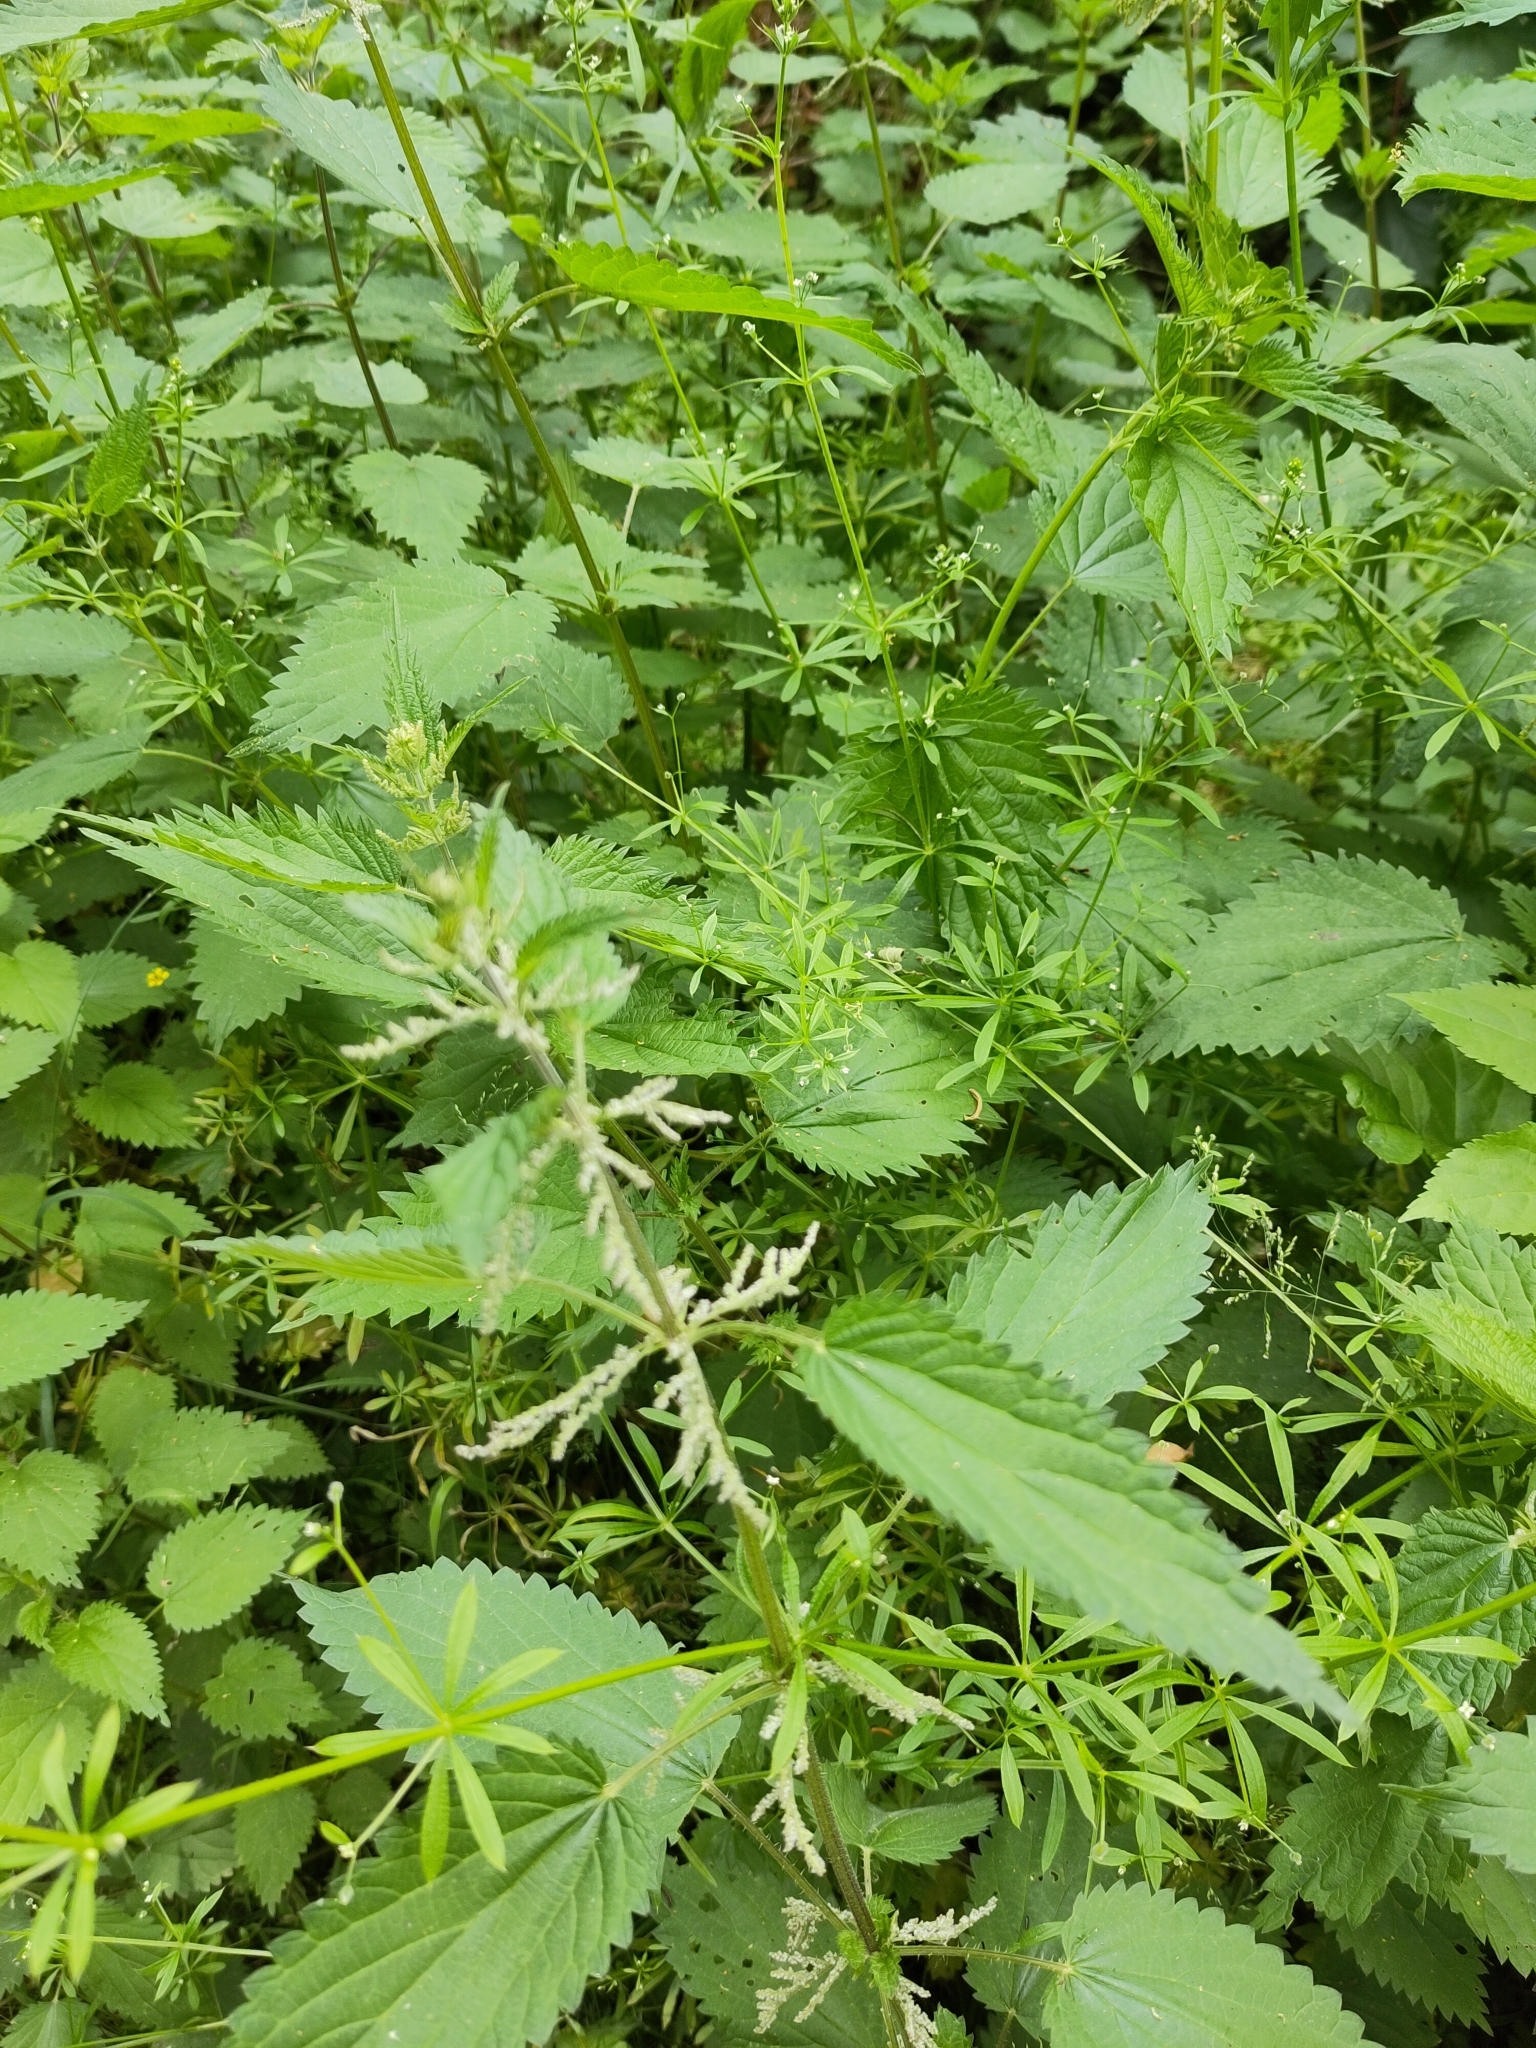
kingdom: Plantae
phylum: Tracheophyta
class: Magnoliopsida
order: Rosales
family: Urticaceae
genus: Urtica
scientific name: Urtica dioica
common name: Common nettle
